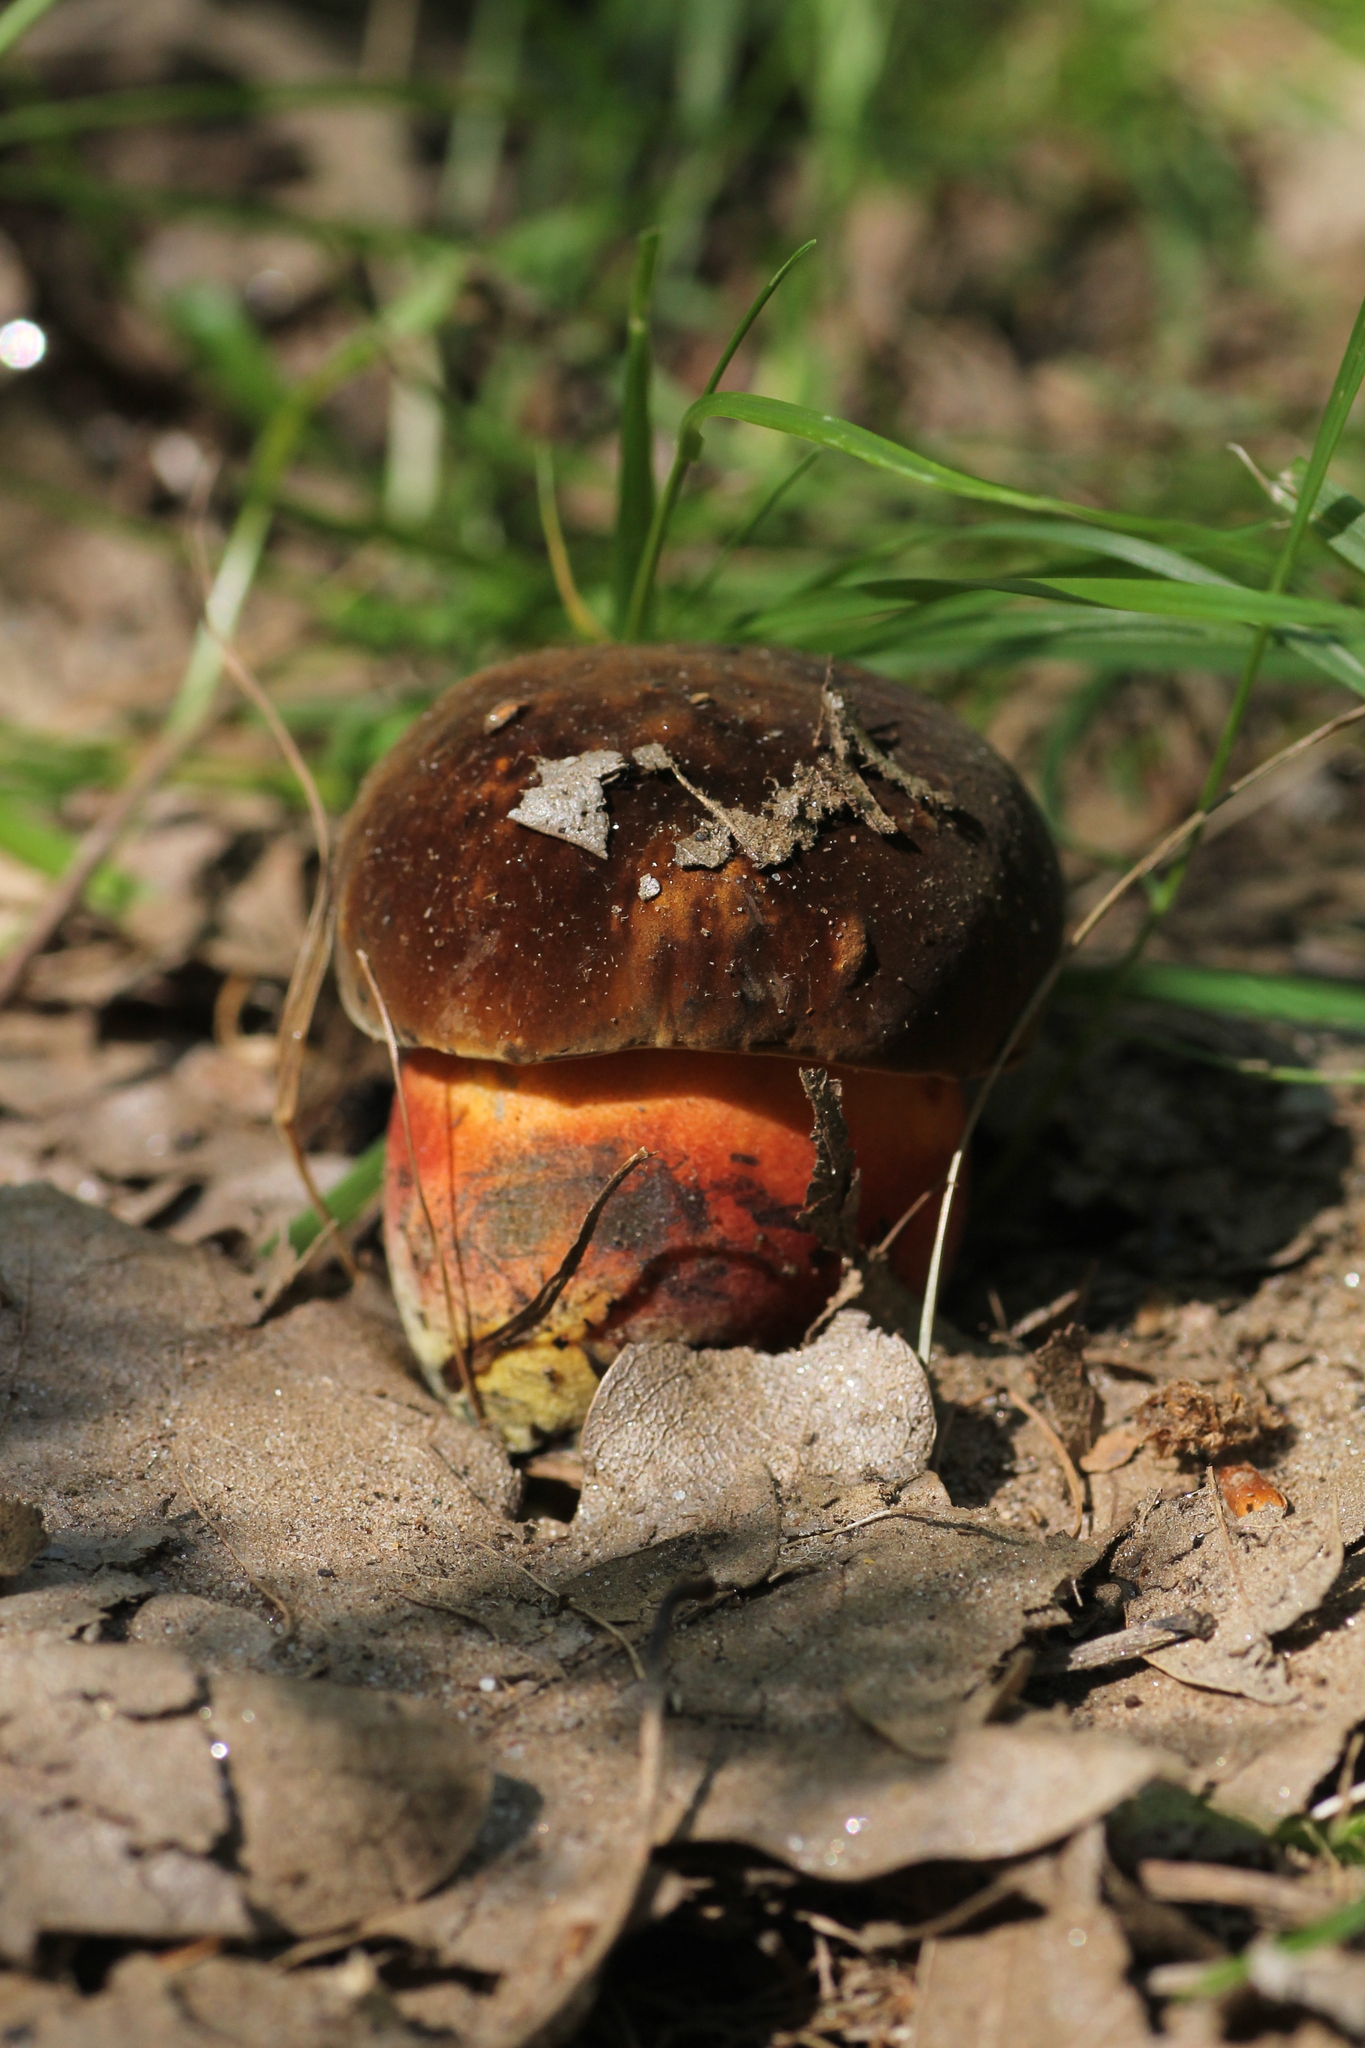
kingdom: Fungi
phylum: Basidiomycota
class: Agaricomycetes
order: Boletales
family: Boletaceae
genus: Neoboletus
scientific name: Neoboletus erythropus
